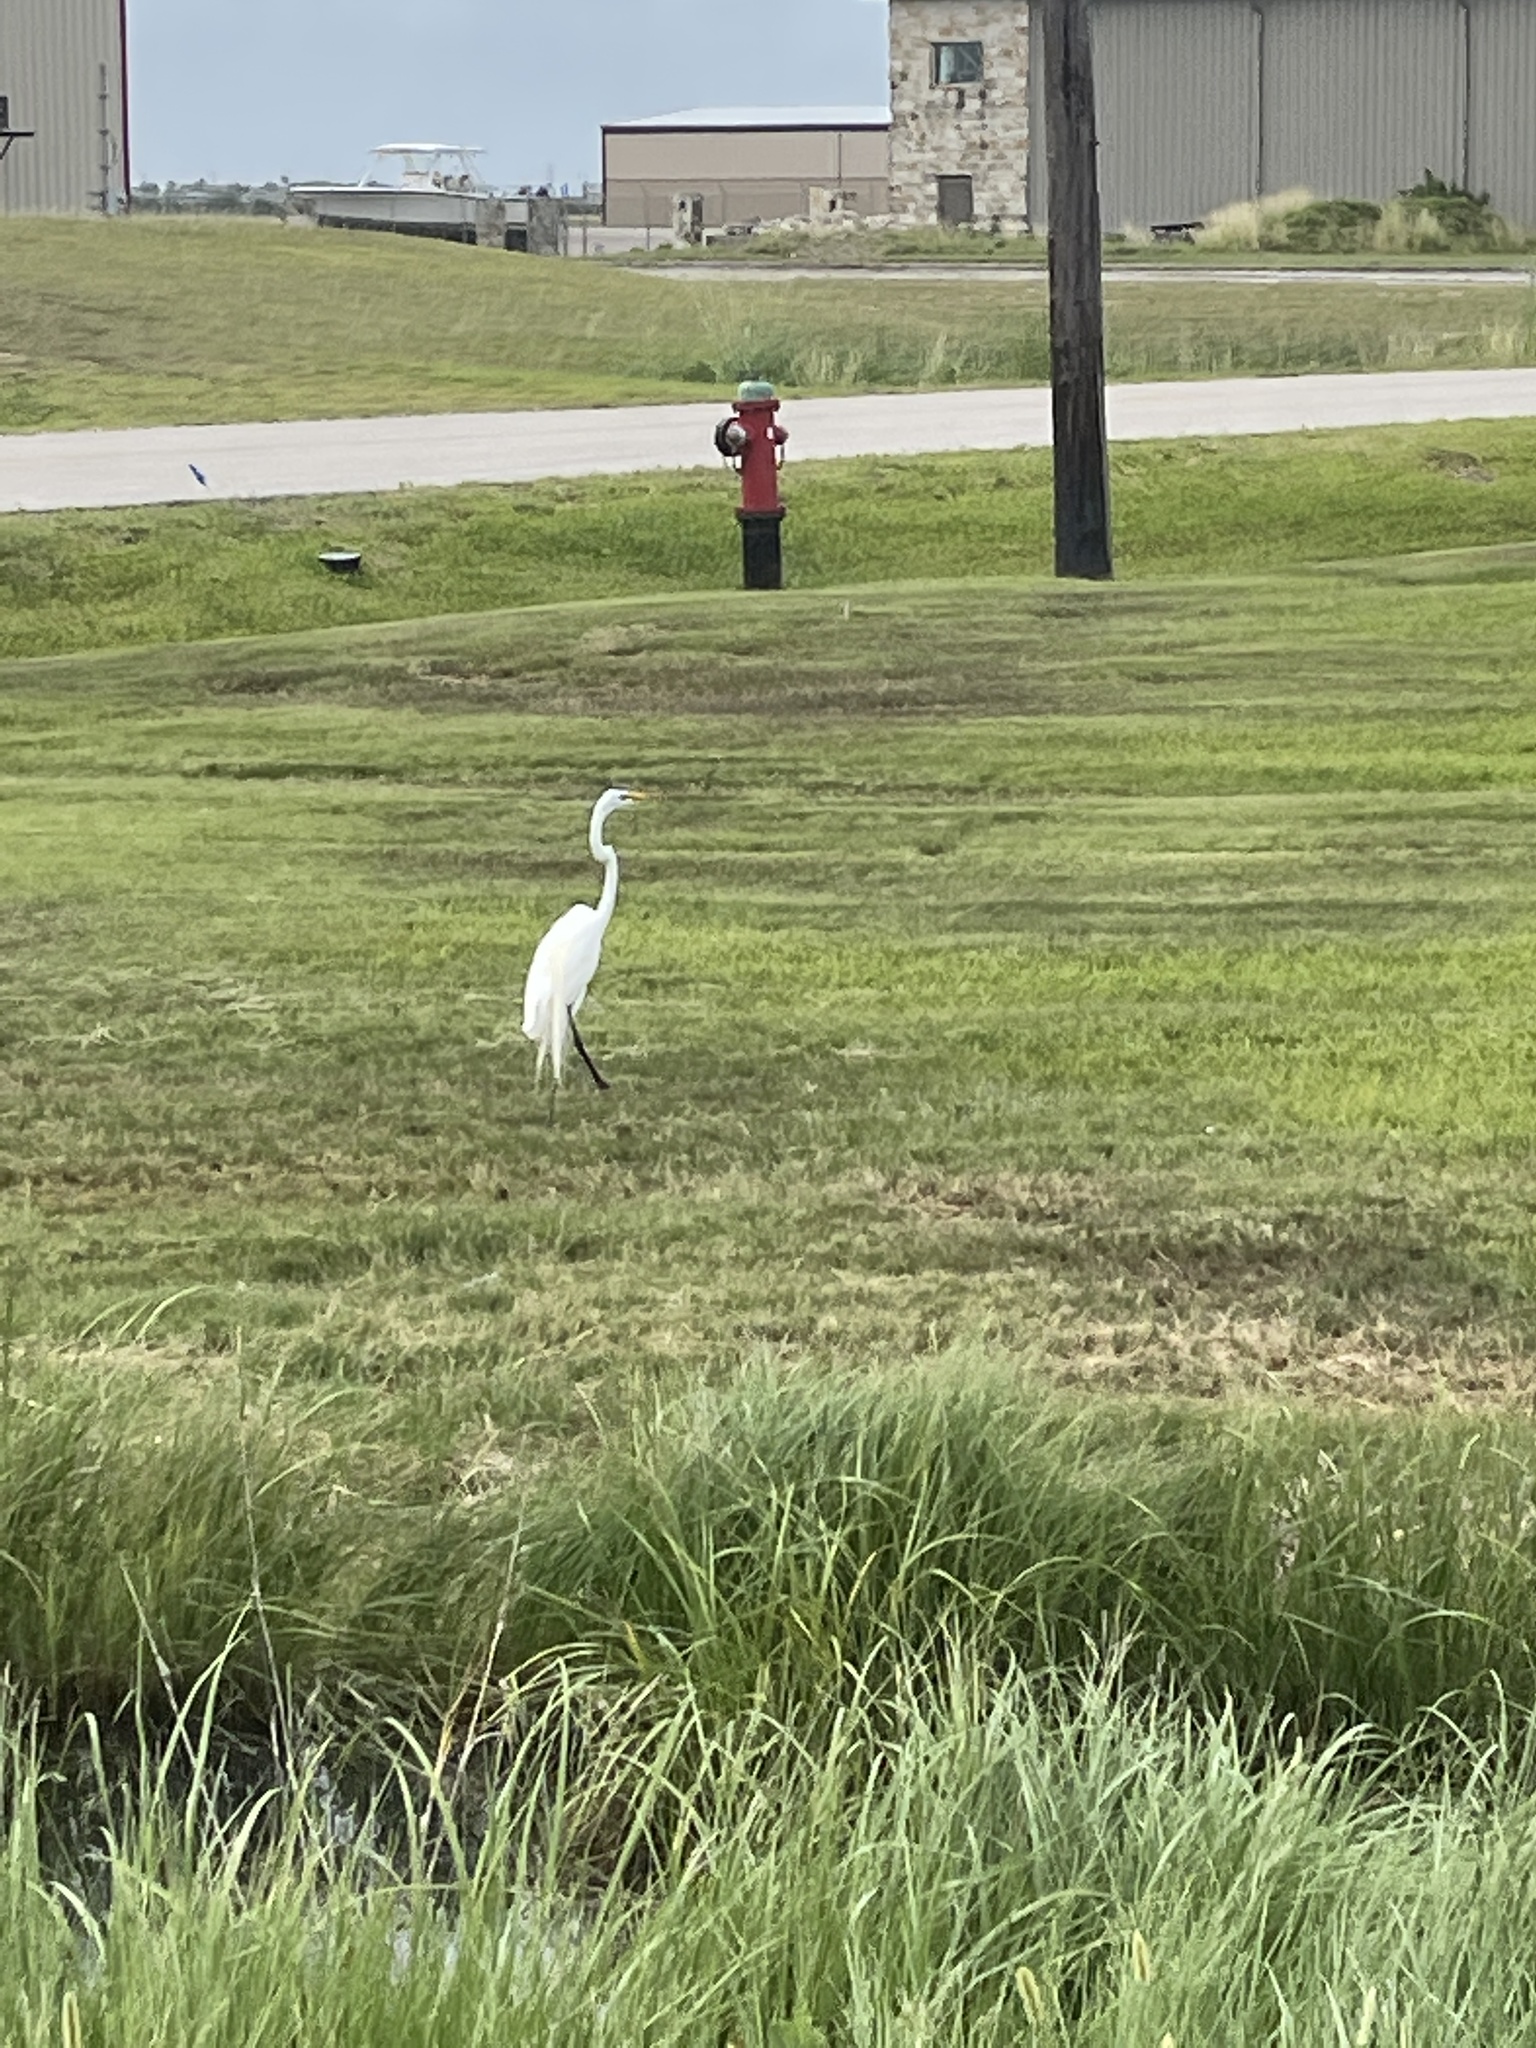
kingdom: Animalia
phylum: Chordata
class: Aves
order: Pelecaniformes
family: Ardeidae
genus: Ardea
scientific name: Ardea alba
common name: Great egret
